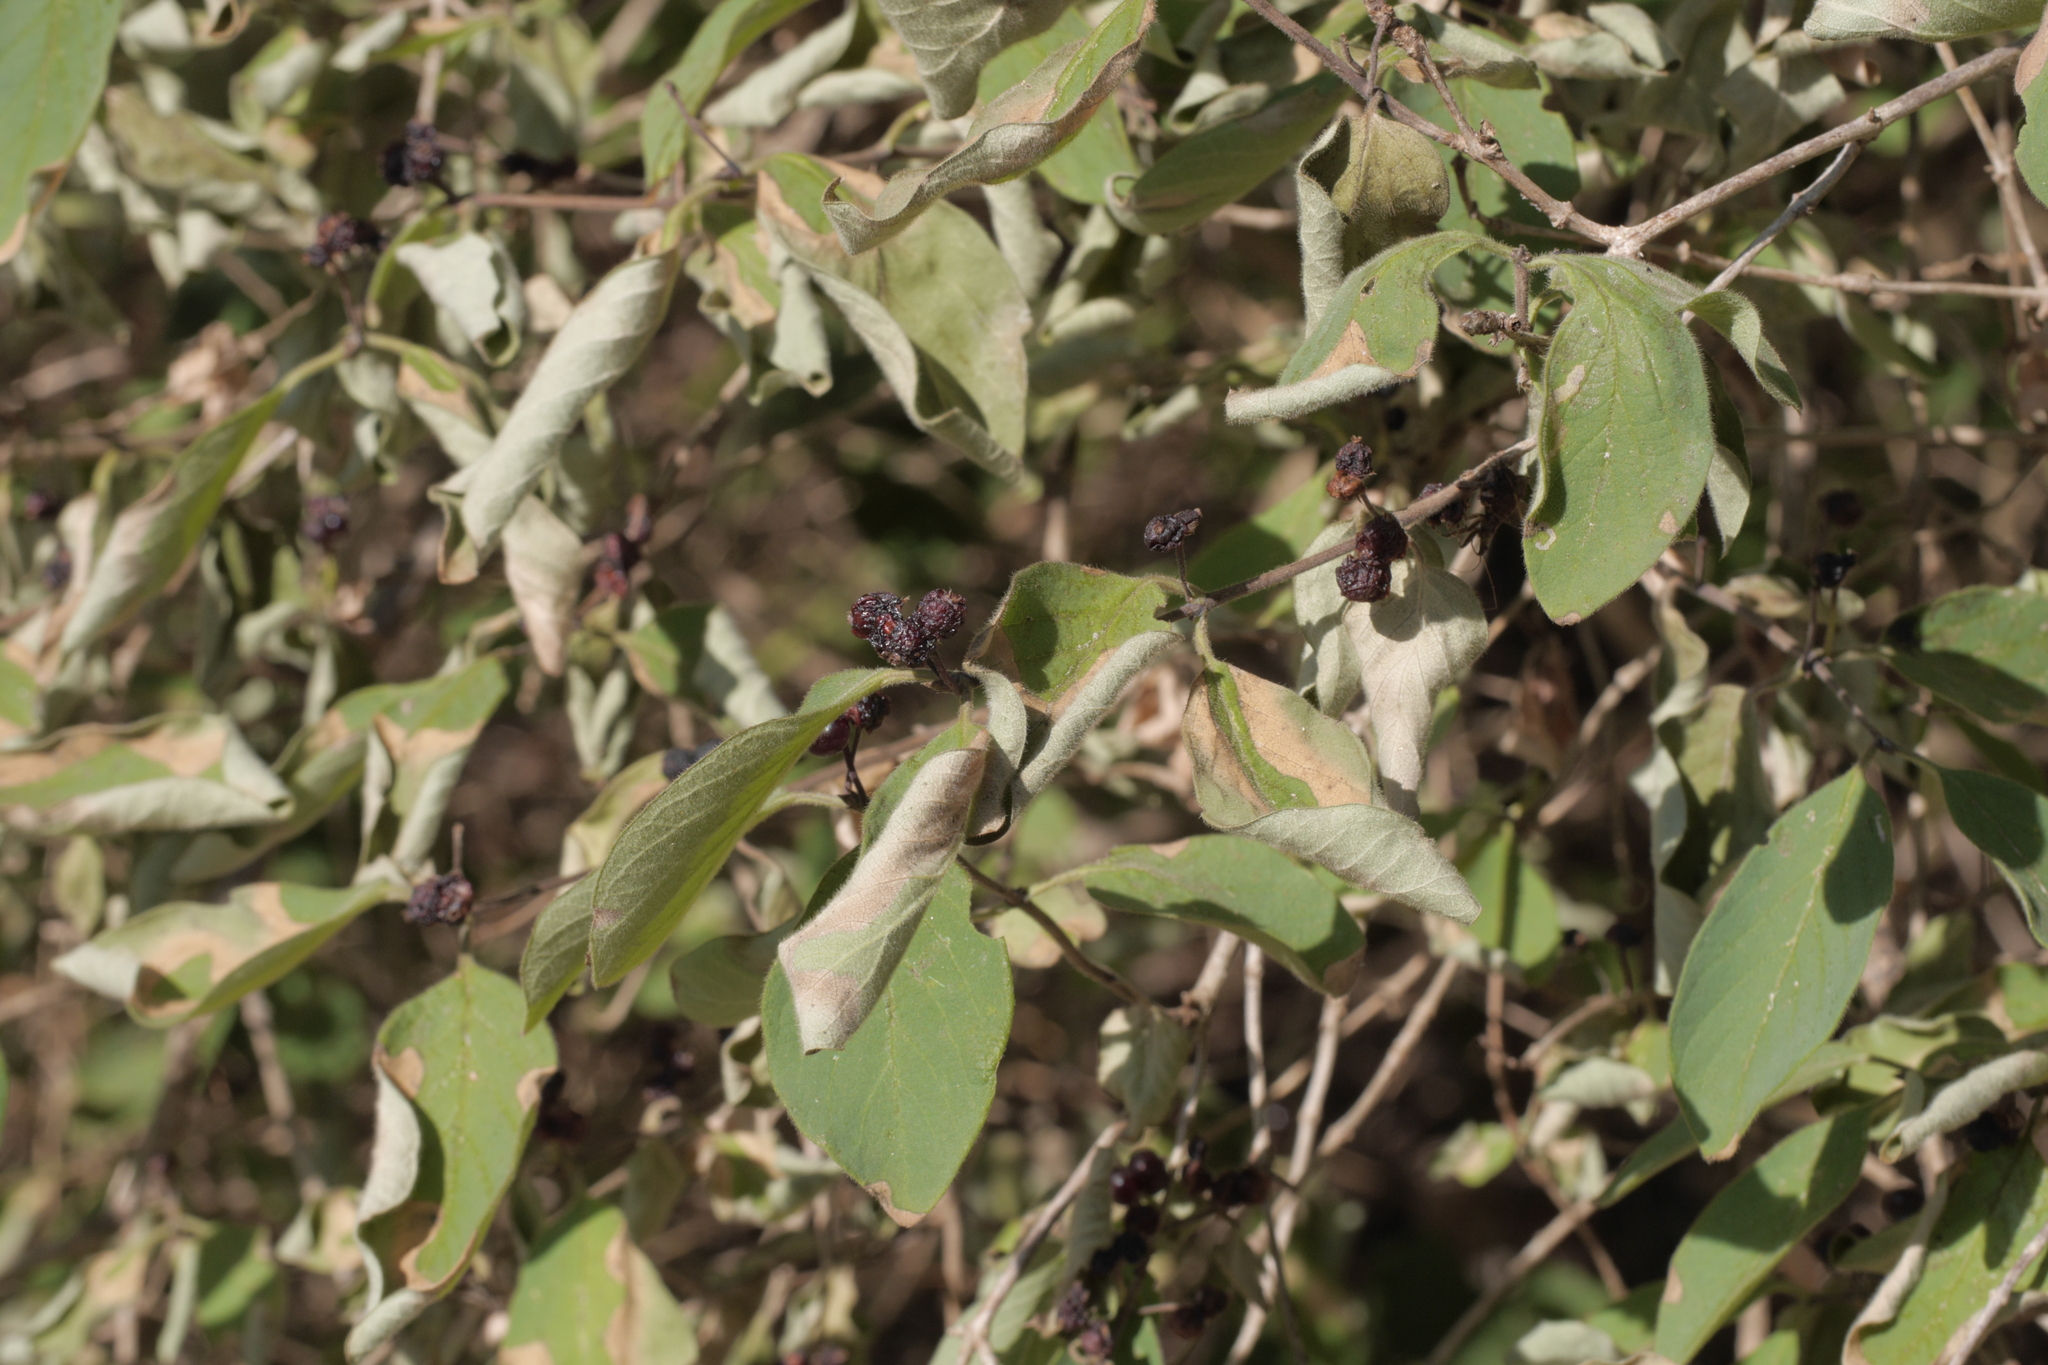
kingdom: Plantae
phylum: Tracheophyta
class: Magnoliopsida
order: Dipsacales
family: Caprifoliaceae
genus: Lonicera
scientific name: Lonicera xylosteum
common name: Fly honeysuckle
